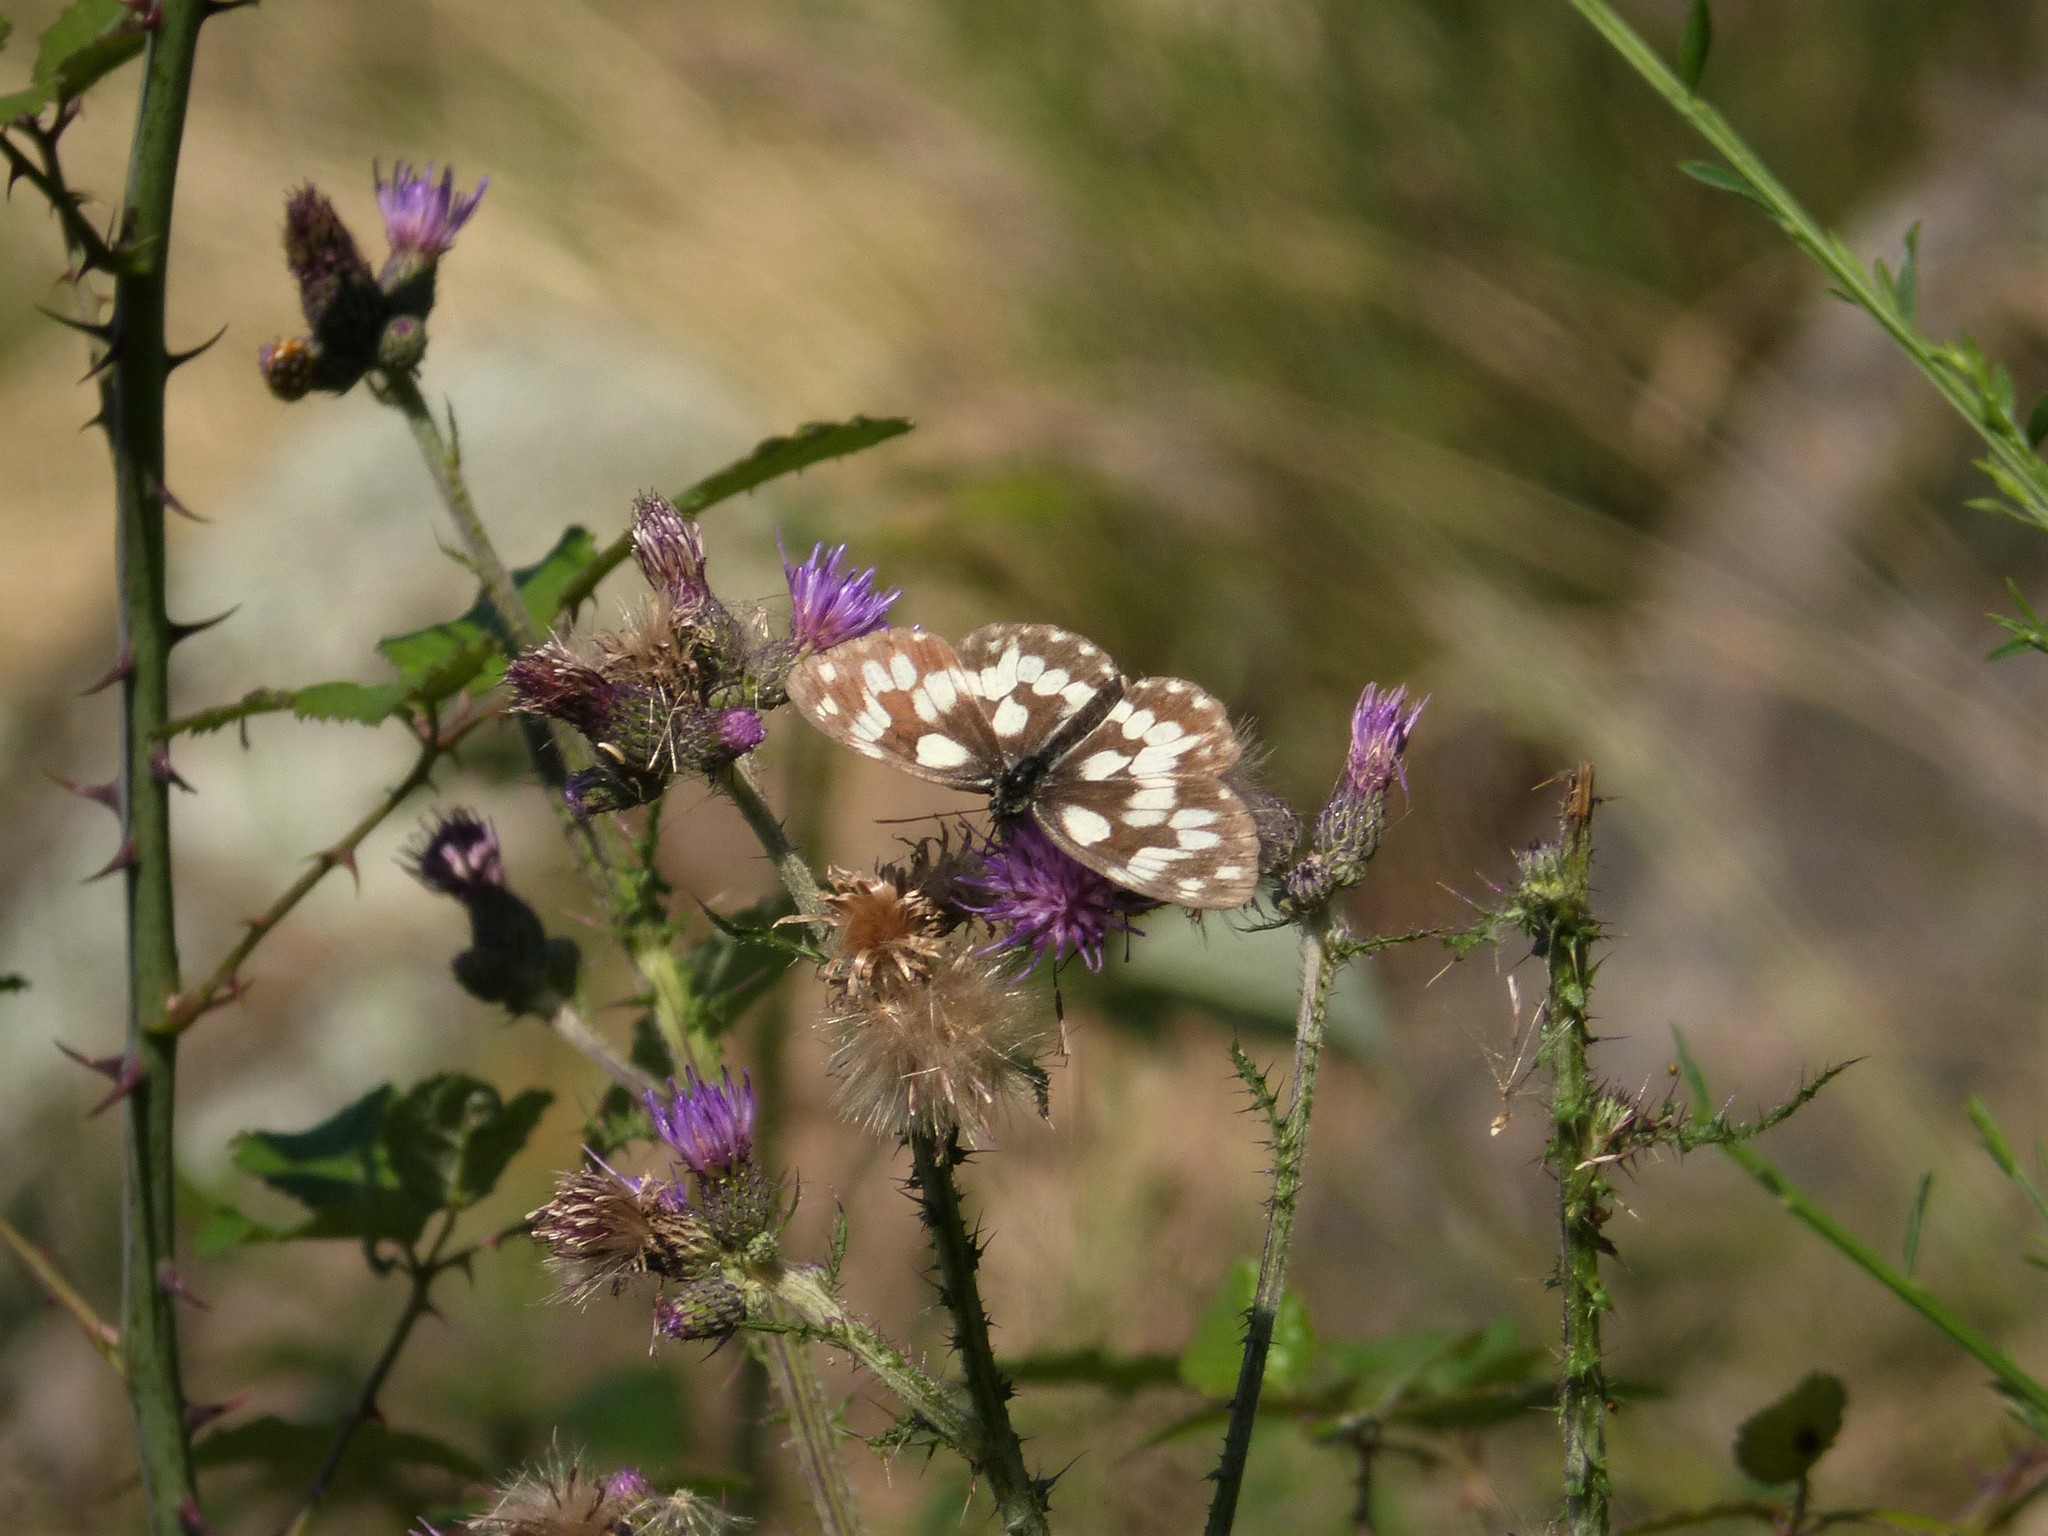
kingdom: Animalia
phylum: Arthropoda
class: Insecta
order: Lepidoptera
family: Nymphalidae
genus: Melanargia
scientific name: Melanargia galathea
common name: Marbled white
